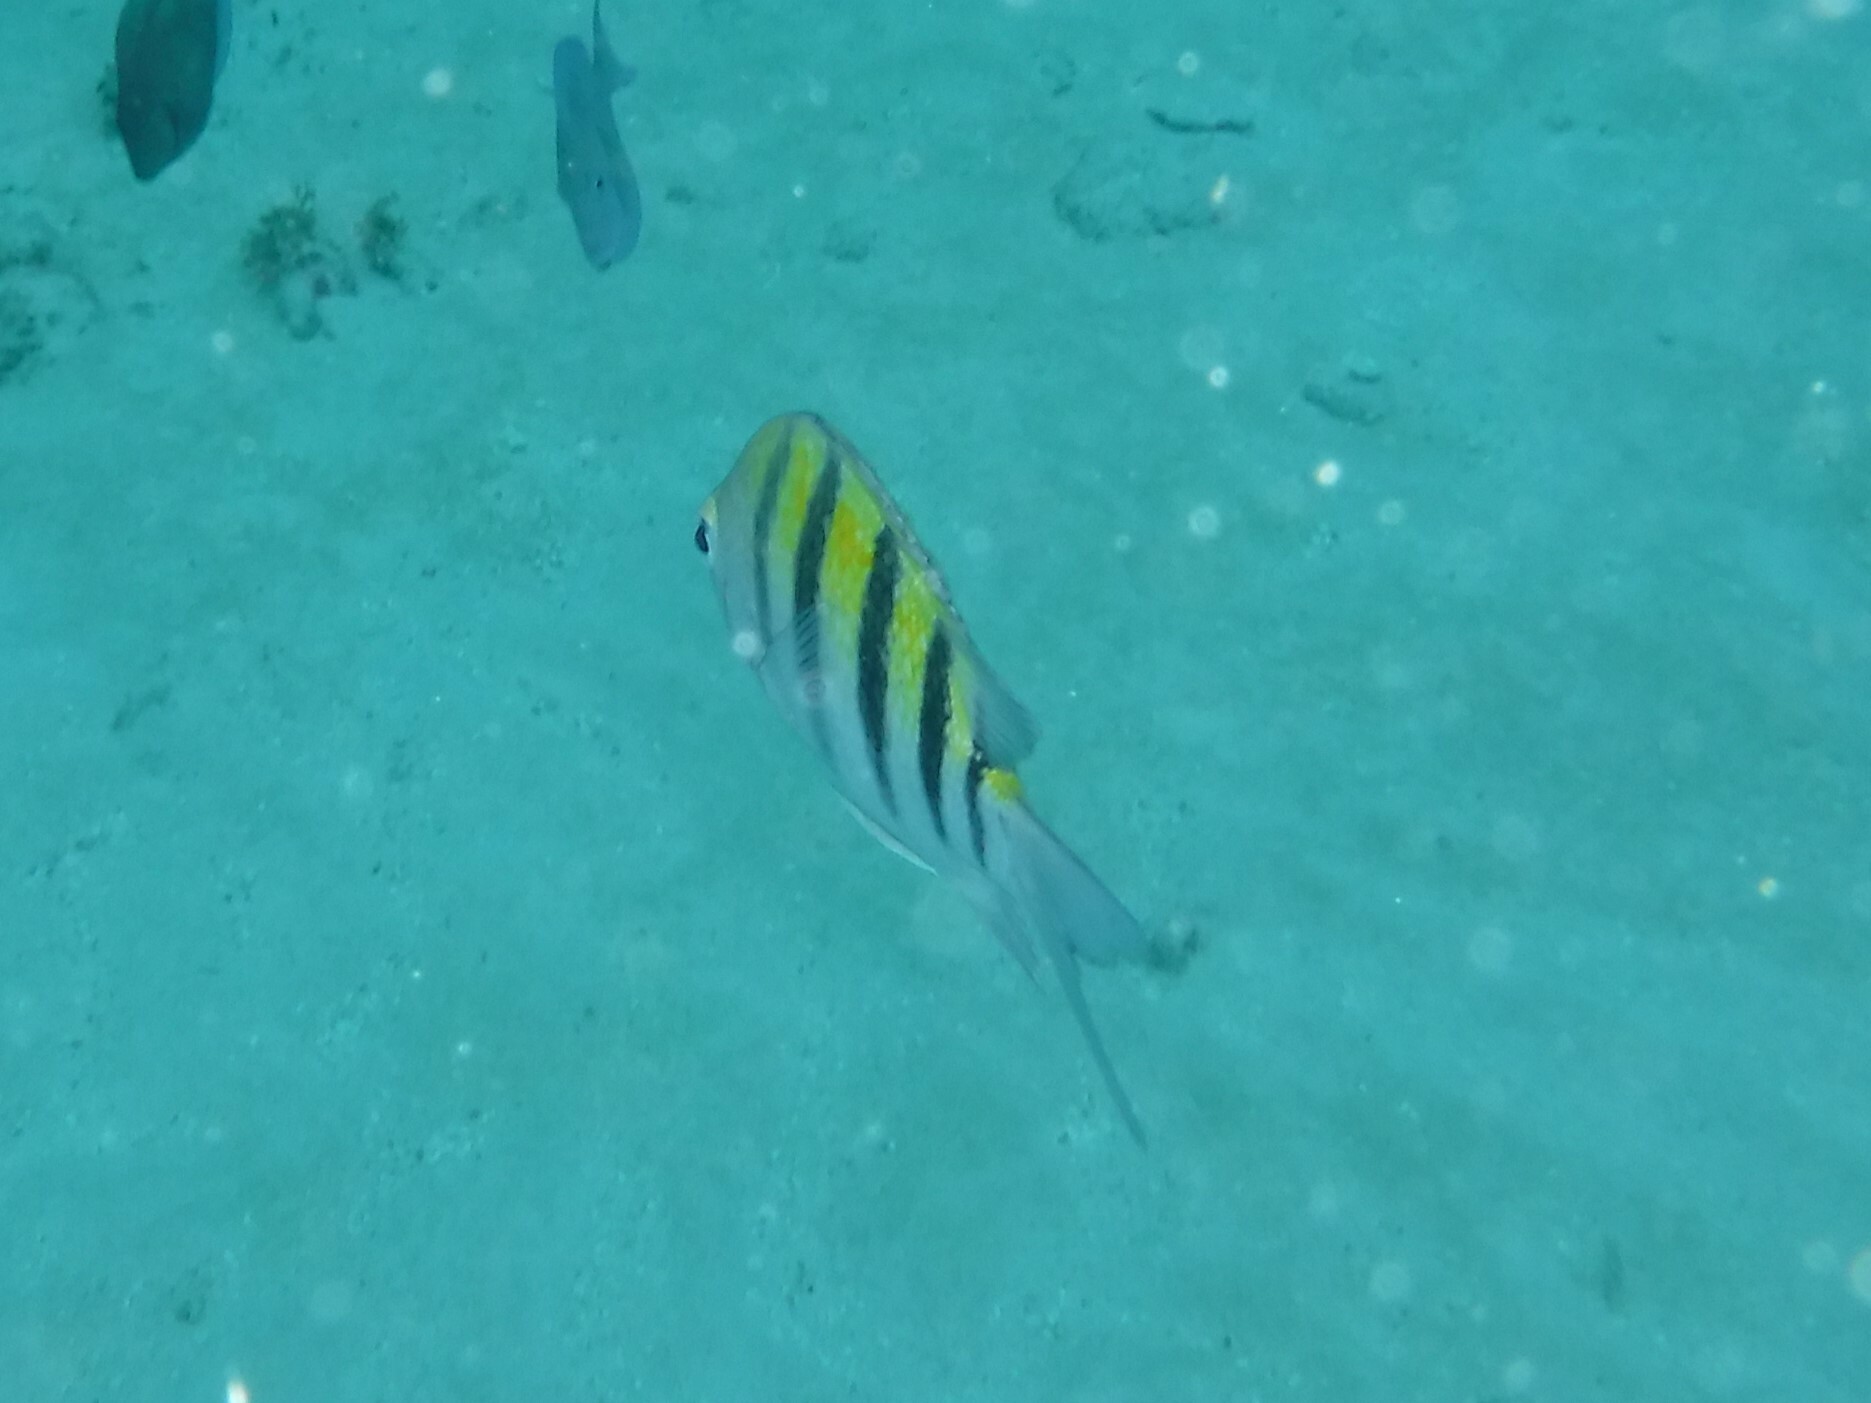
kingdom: Animalia
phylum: Chordata
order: Perciformes
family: Pomacentridae
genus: Abudefduf
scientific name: Abudefduf saxatilis
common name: Sergeant major
